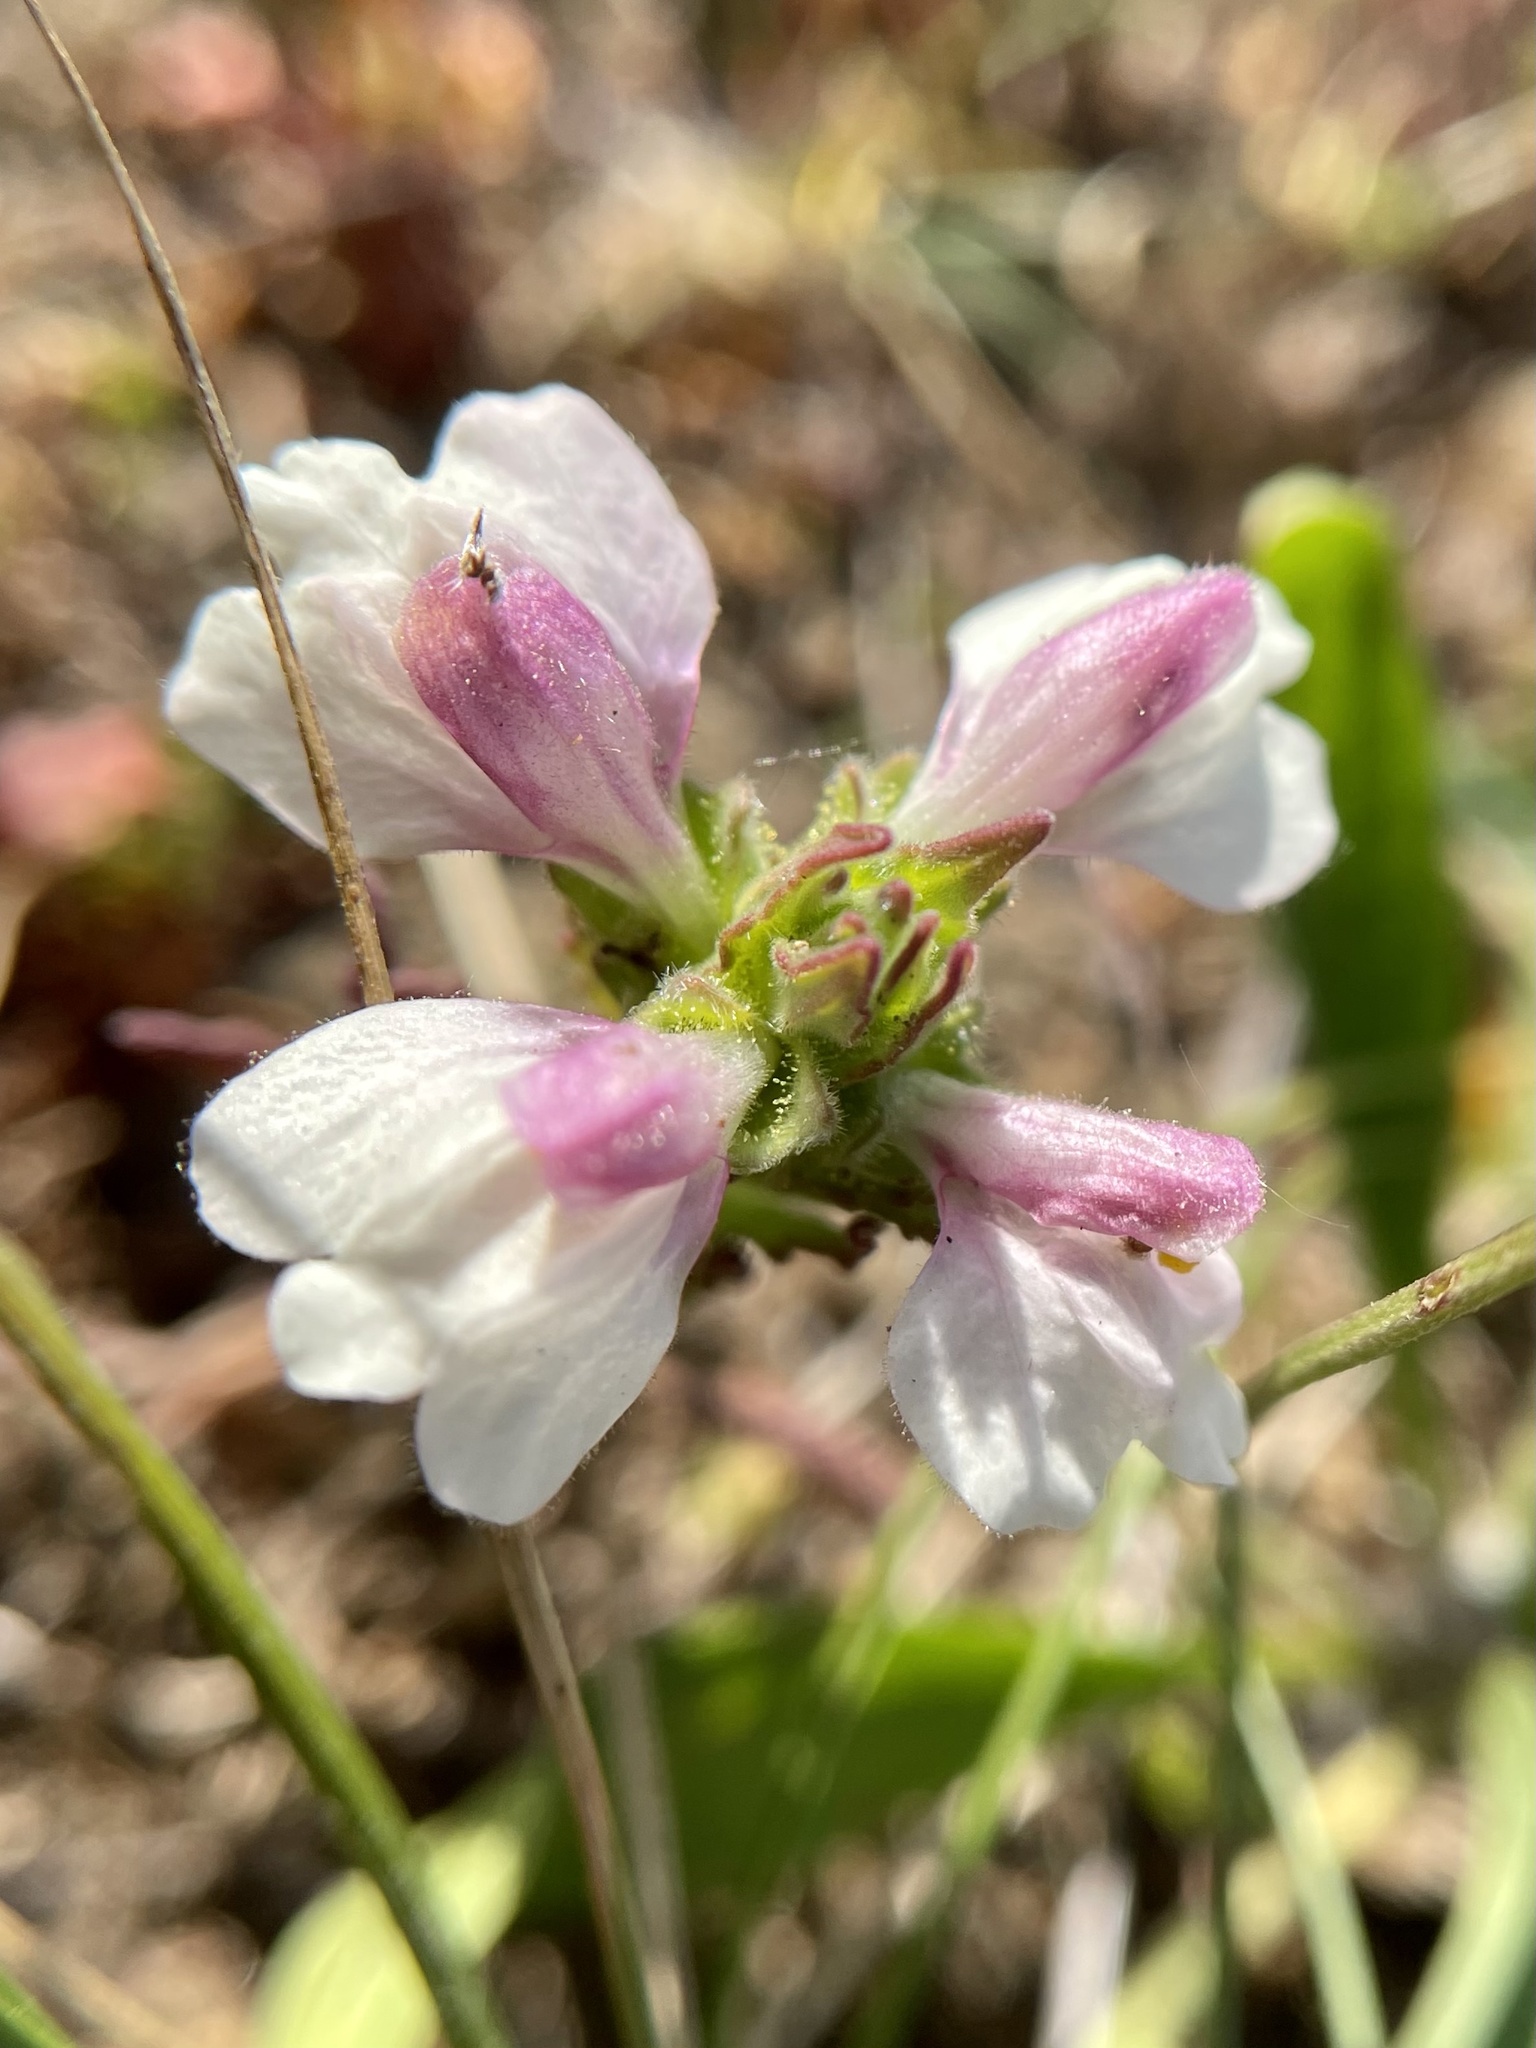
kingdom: Plantae
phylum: Tracheophyta
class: Magnoliopsida
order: Lamiales
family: Orobanchaceae
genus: Bellardia
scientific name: Bellardia trixago
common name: Mediterranean lineseed
